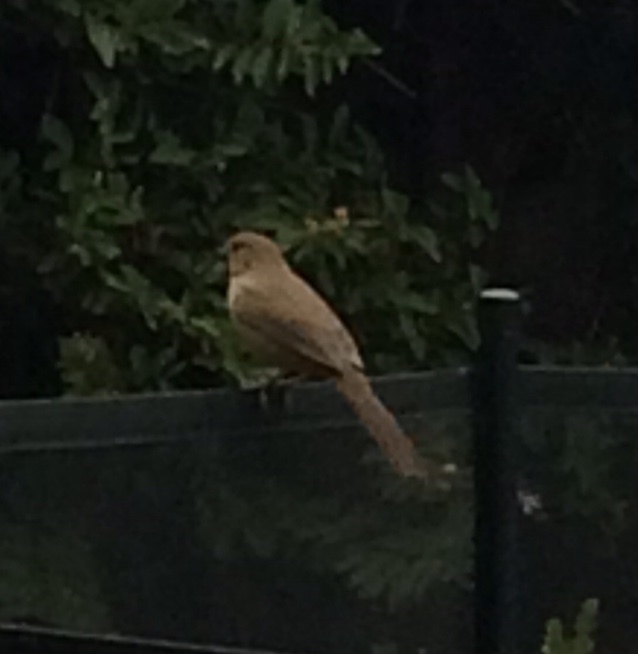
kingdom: Animalia
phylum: Chordata
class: Aves
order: Passeriformes
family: Passerellidae
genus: Melozone
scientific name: Melozone crissalis
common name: California towhee
